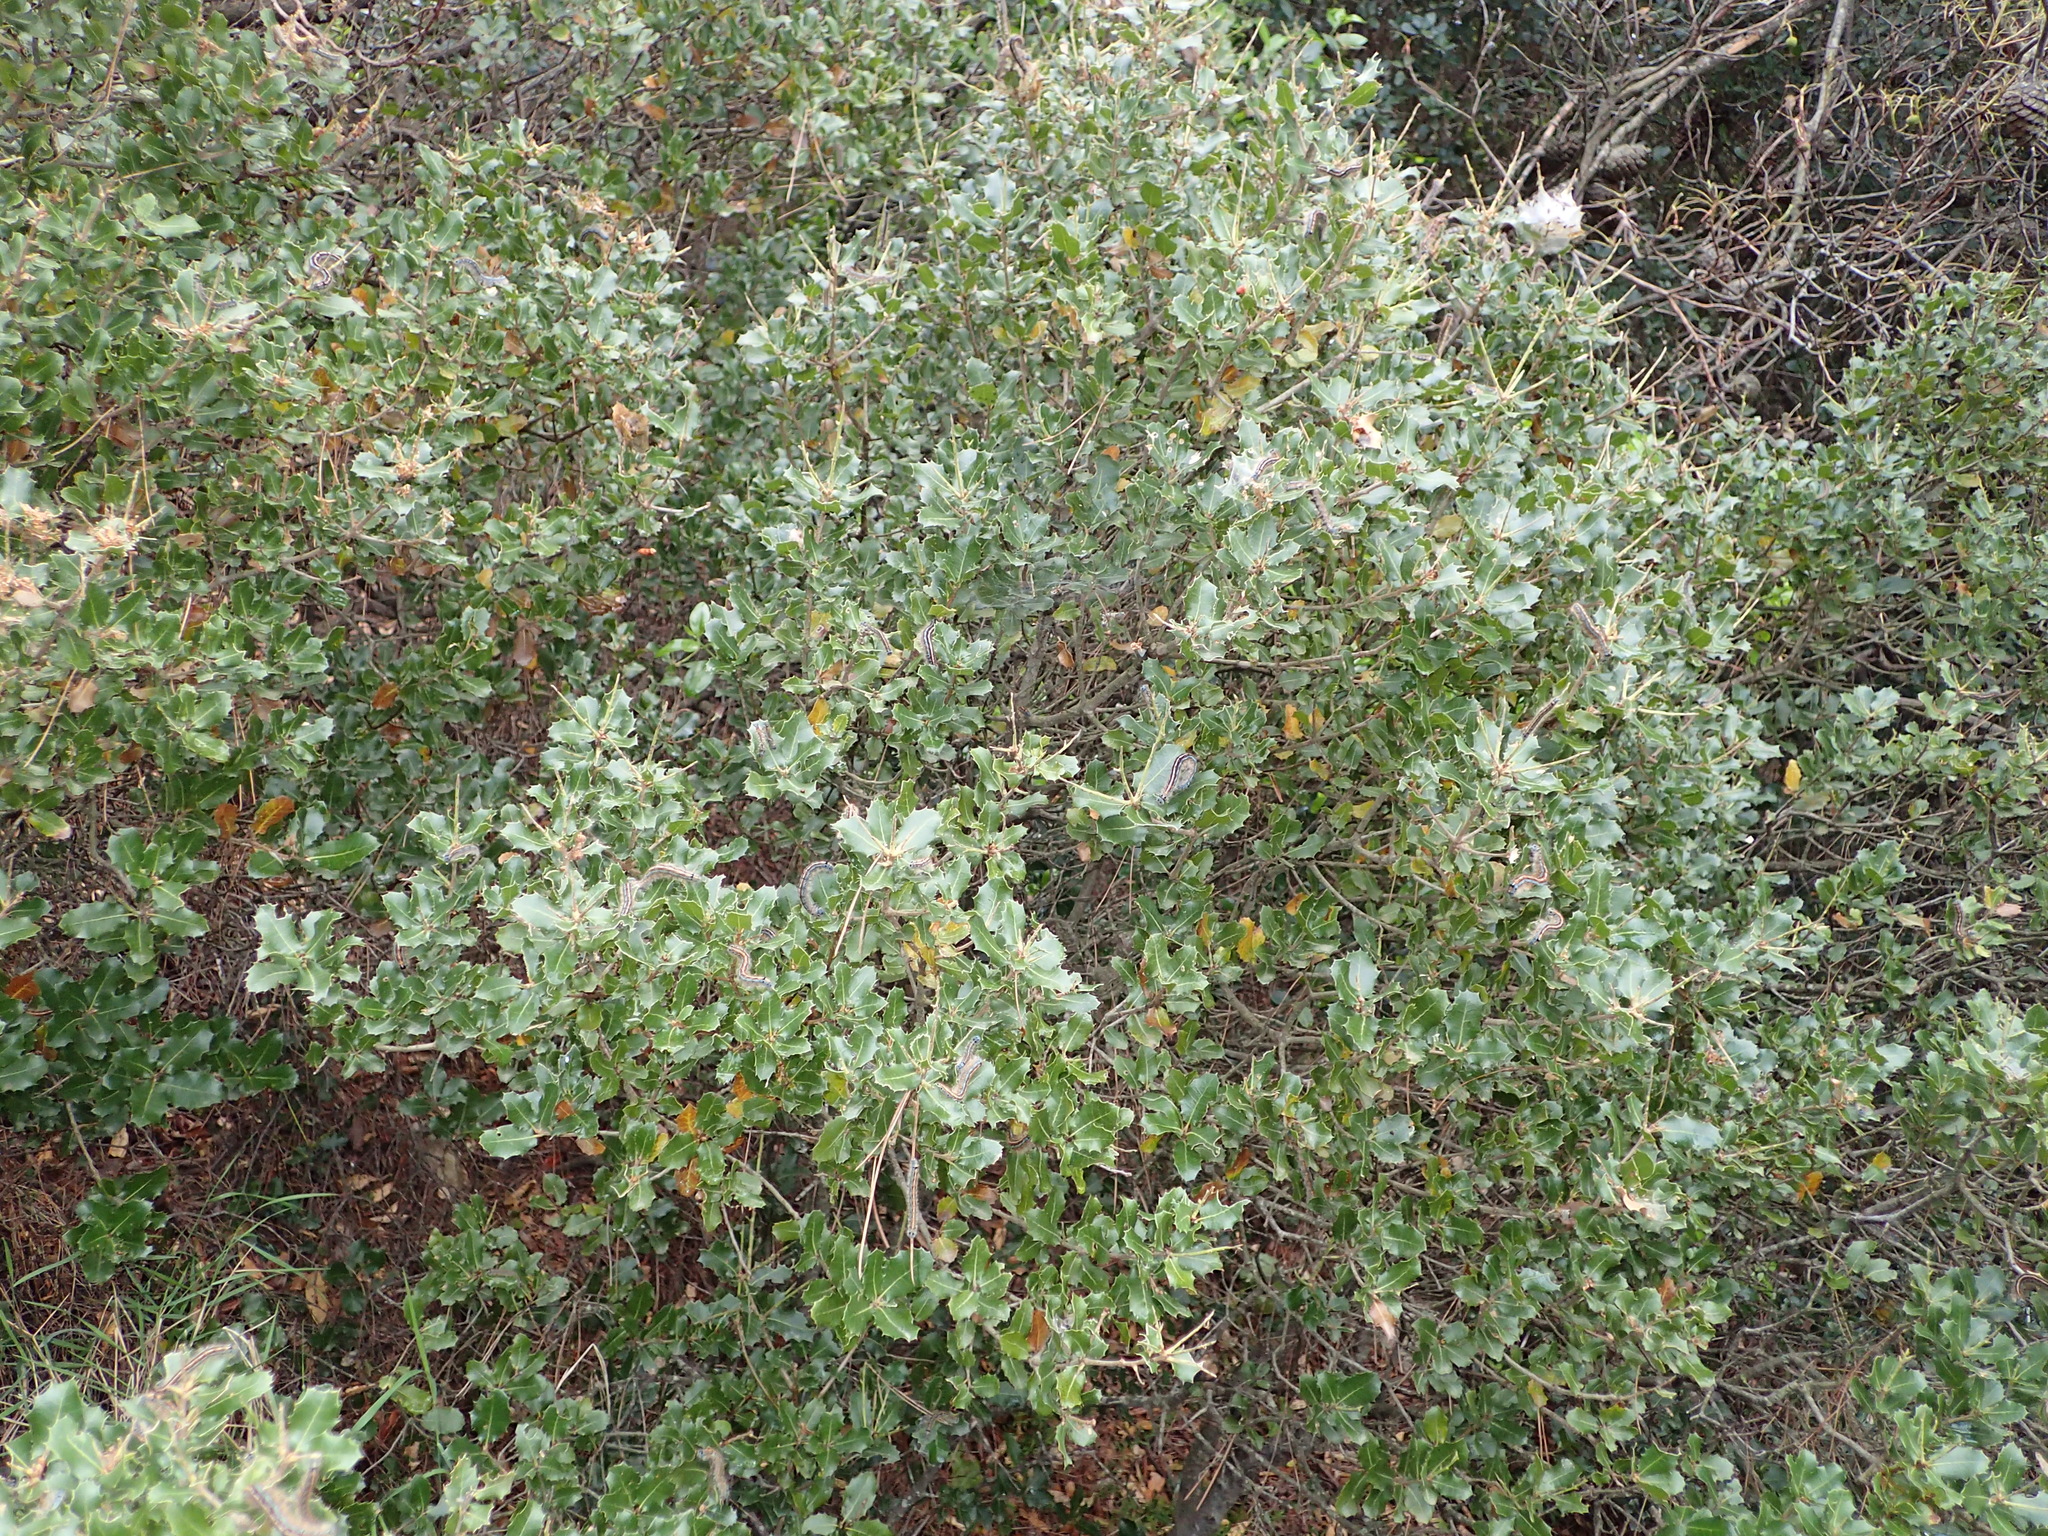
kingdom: Animalia
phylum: Arthropoda
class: Insecta
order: Lepidoptera
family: Lasiocampidae
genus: Malacosoma
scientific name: Malacosoma neustria
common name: The lackey
